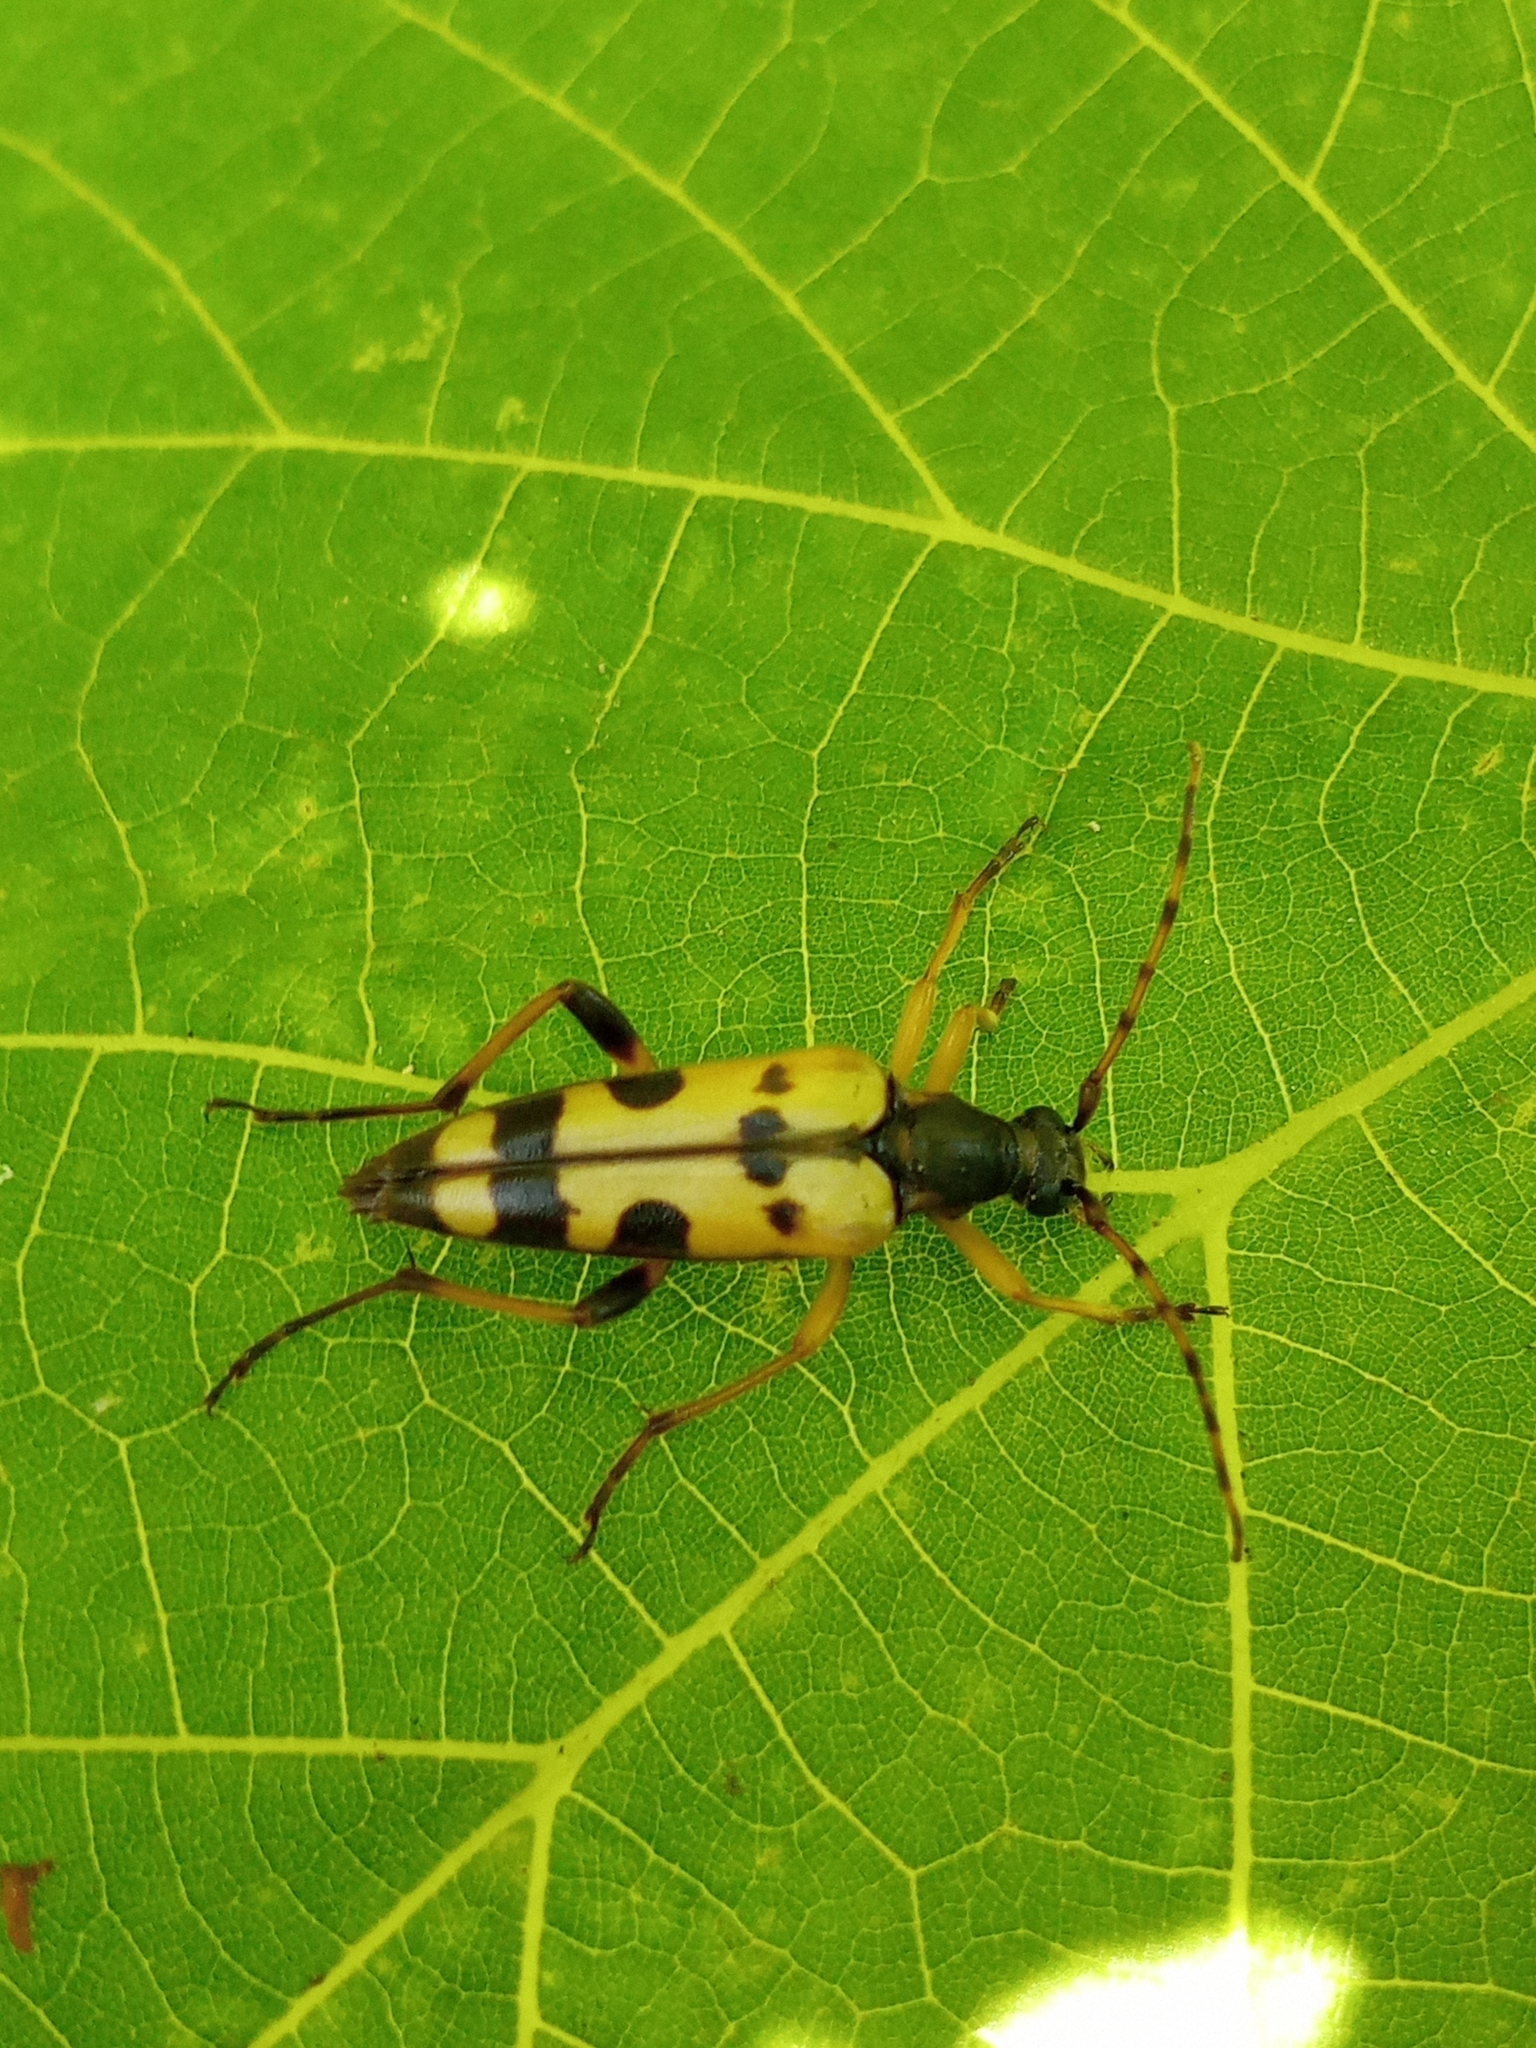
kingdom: Animalia
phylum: Arthropoda
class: Insecta
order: Coleoptera
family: Cerambycidae
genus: Rutpela
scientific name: Rutpela maculata
